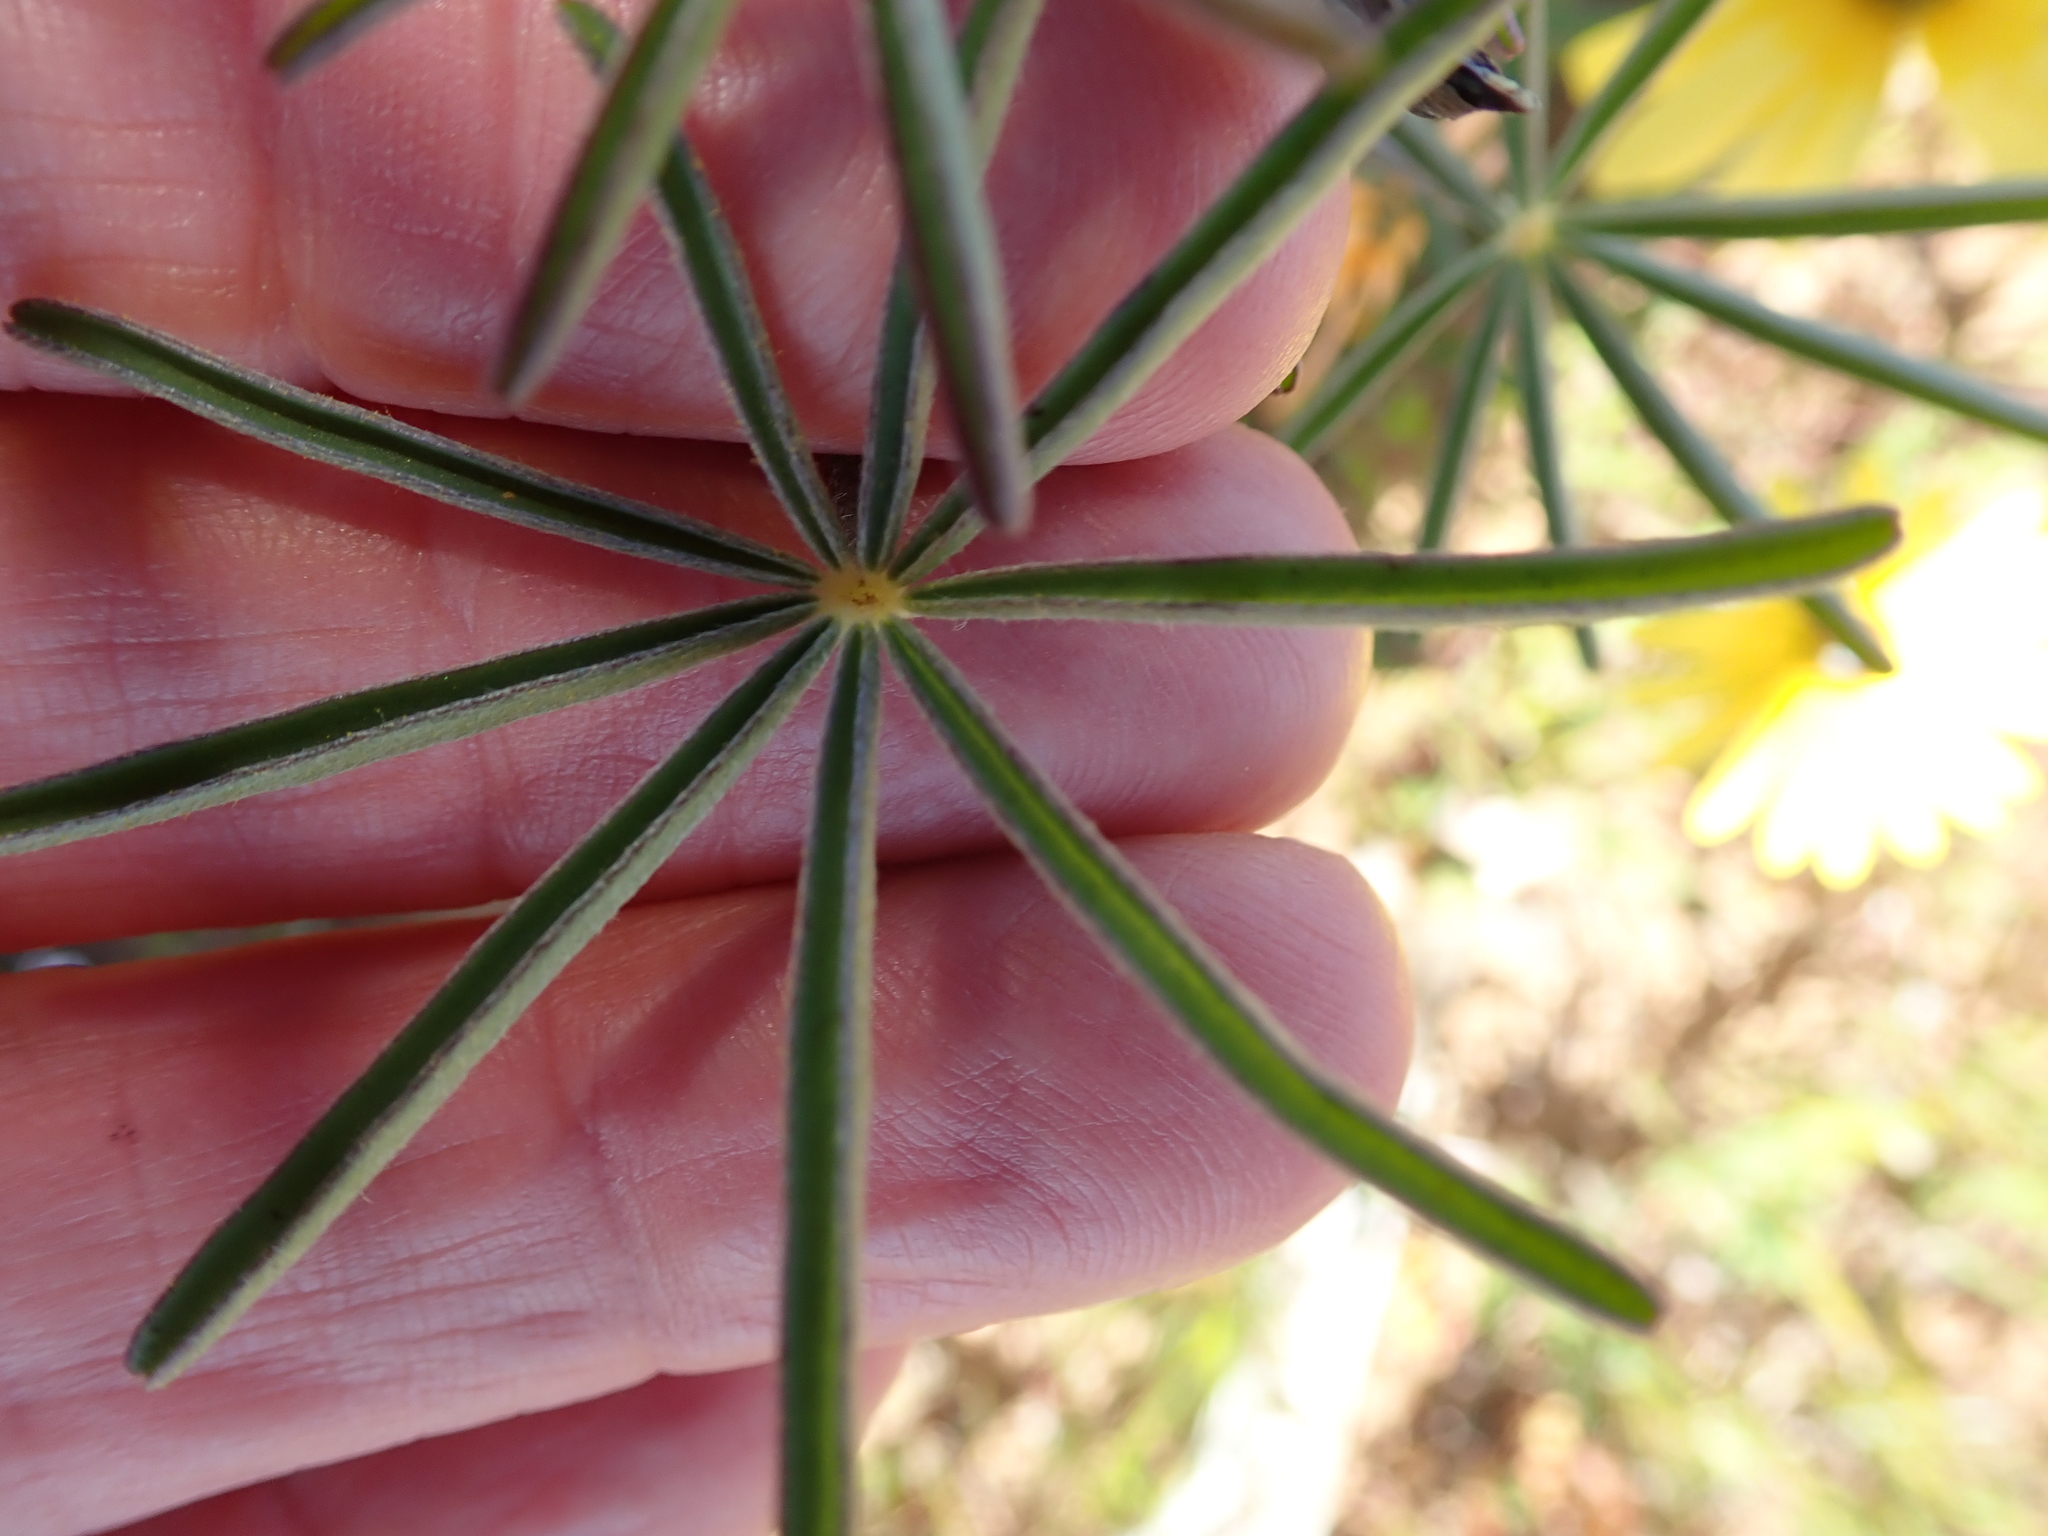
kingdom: Plantae
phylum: Tracheophyta
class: Magnoliopsida
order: Fabales
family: Fabaceae
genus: Lupinus
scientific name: Lupinus angustifolius
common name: Narrow-leaved lupin
